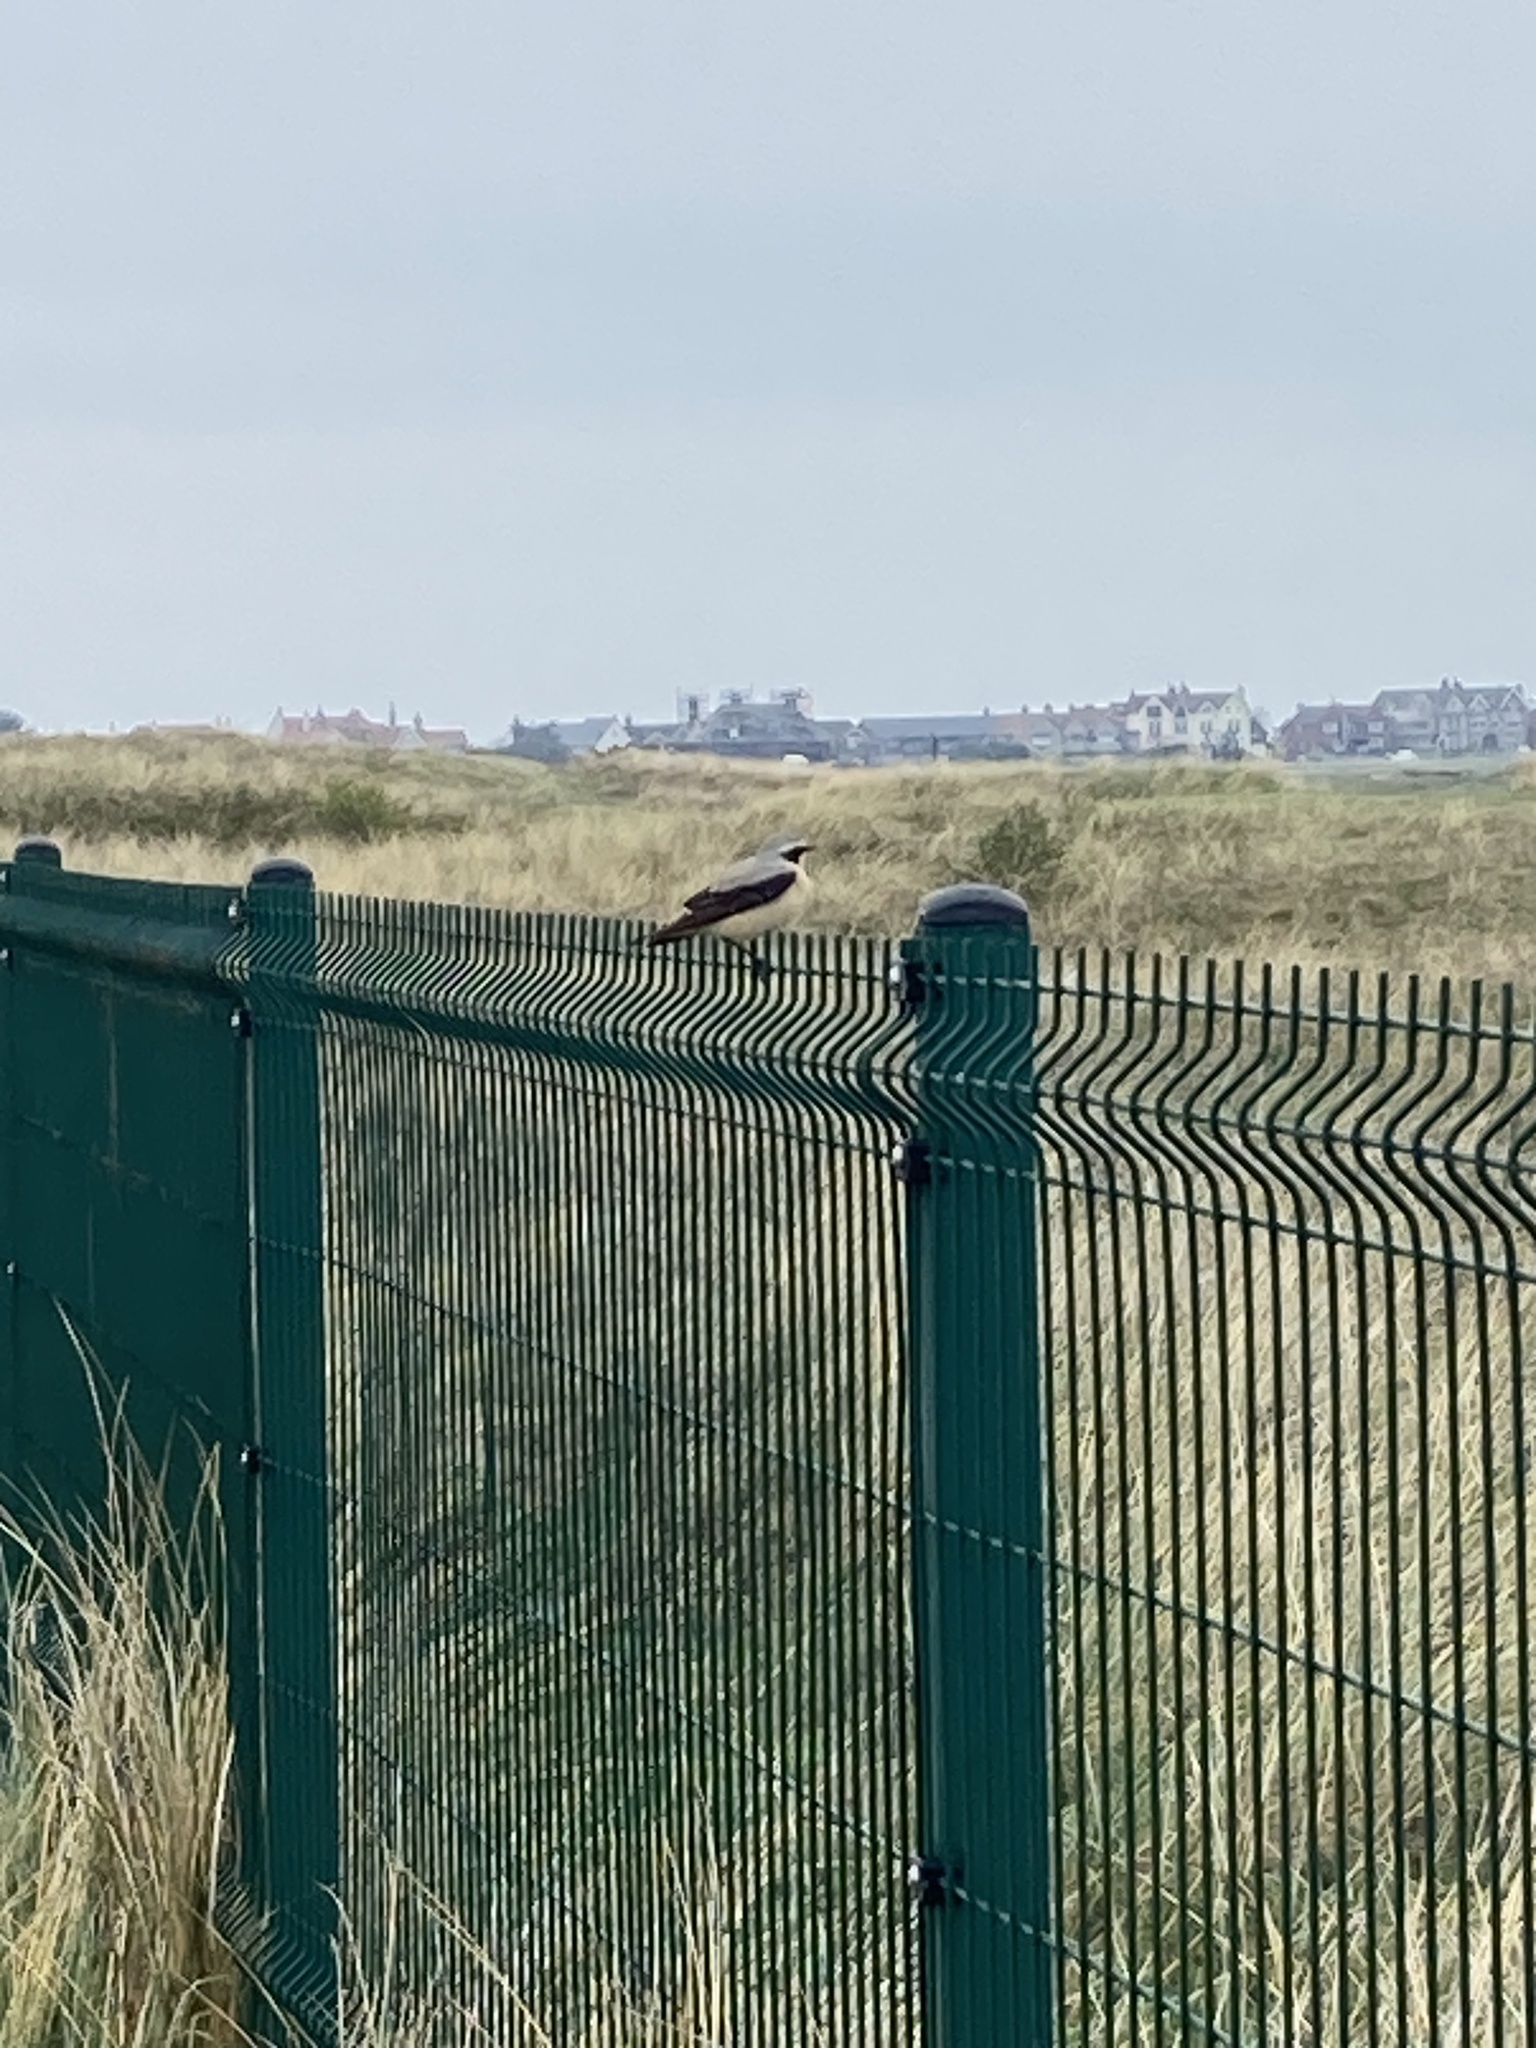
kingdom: Animalia
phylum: Chordata
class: Aves
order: Passeriformes
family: Muscicapidae
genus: Oenanthe
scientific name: Oenanthe oenanthe
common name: Northern wheatear
